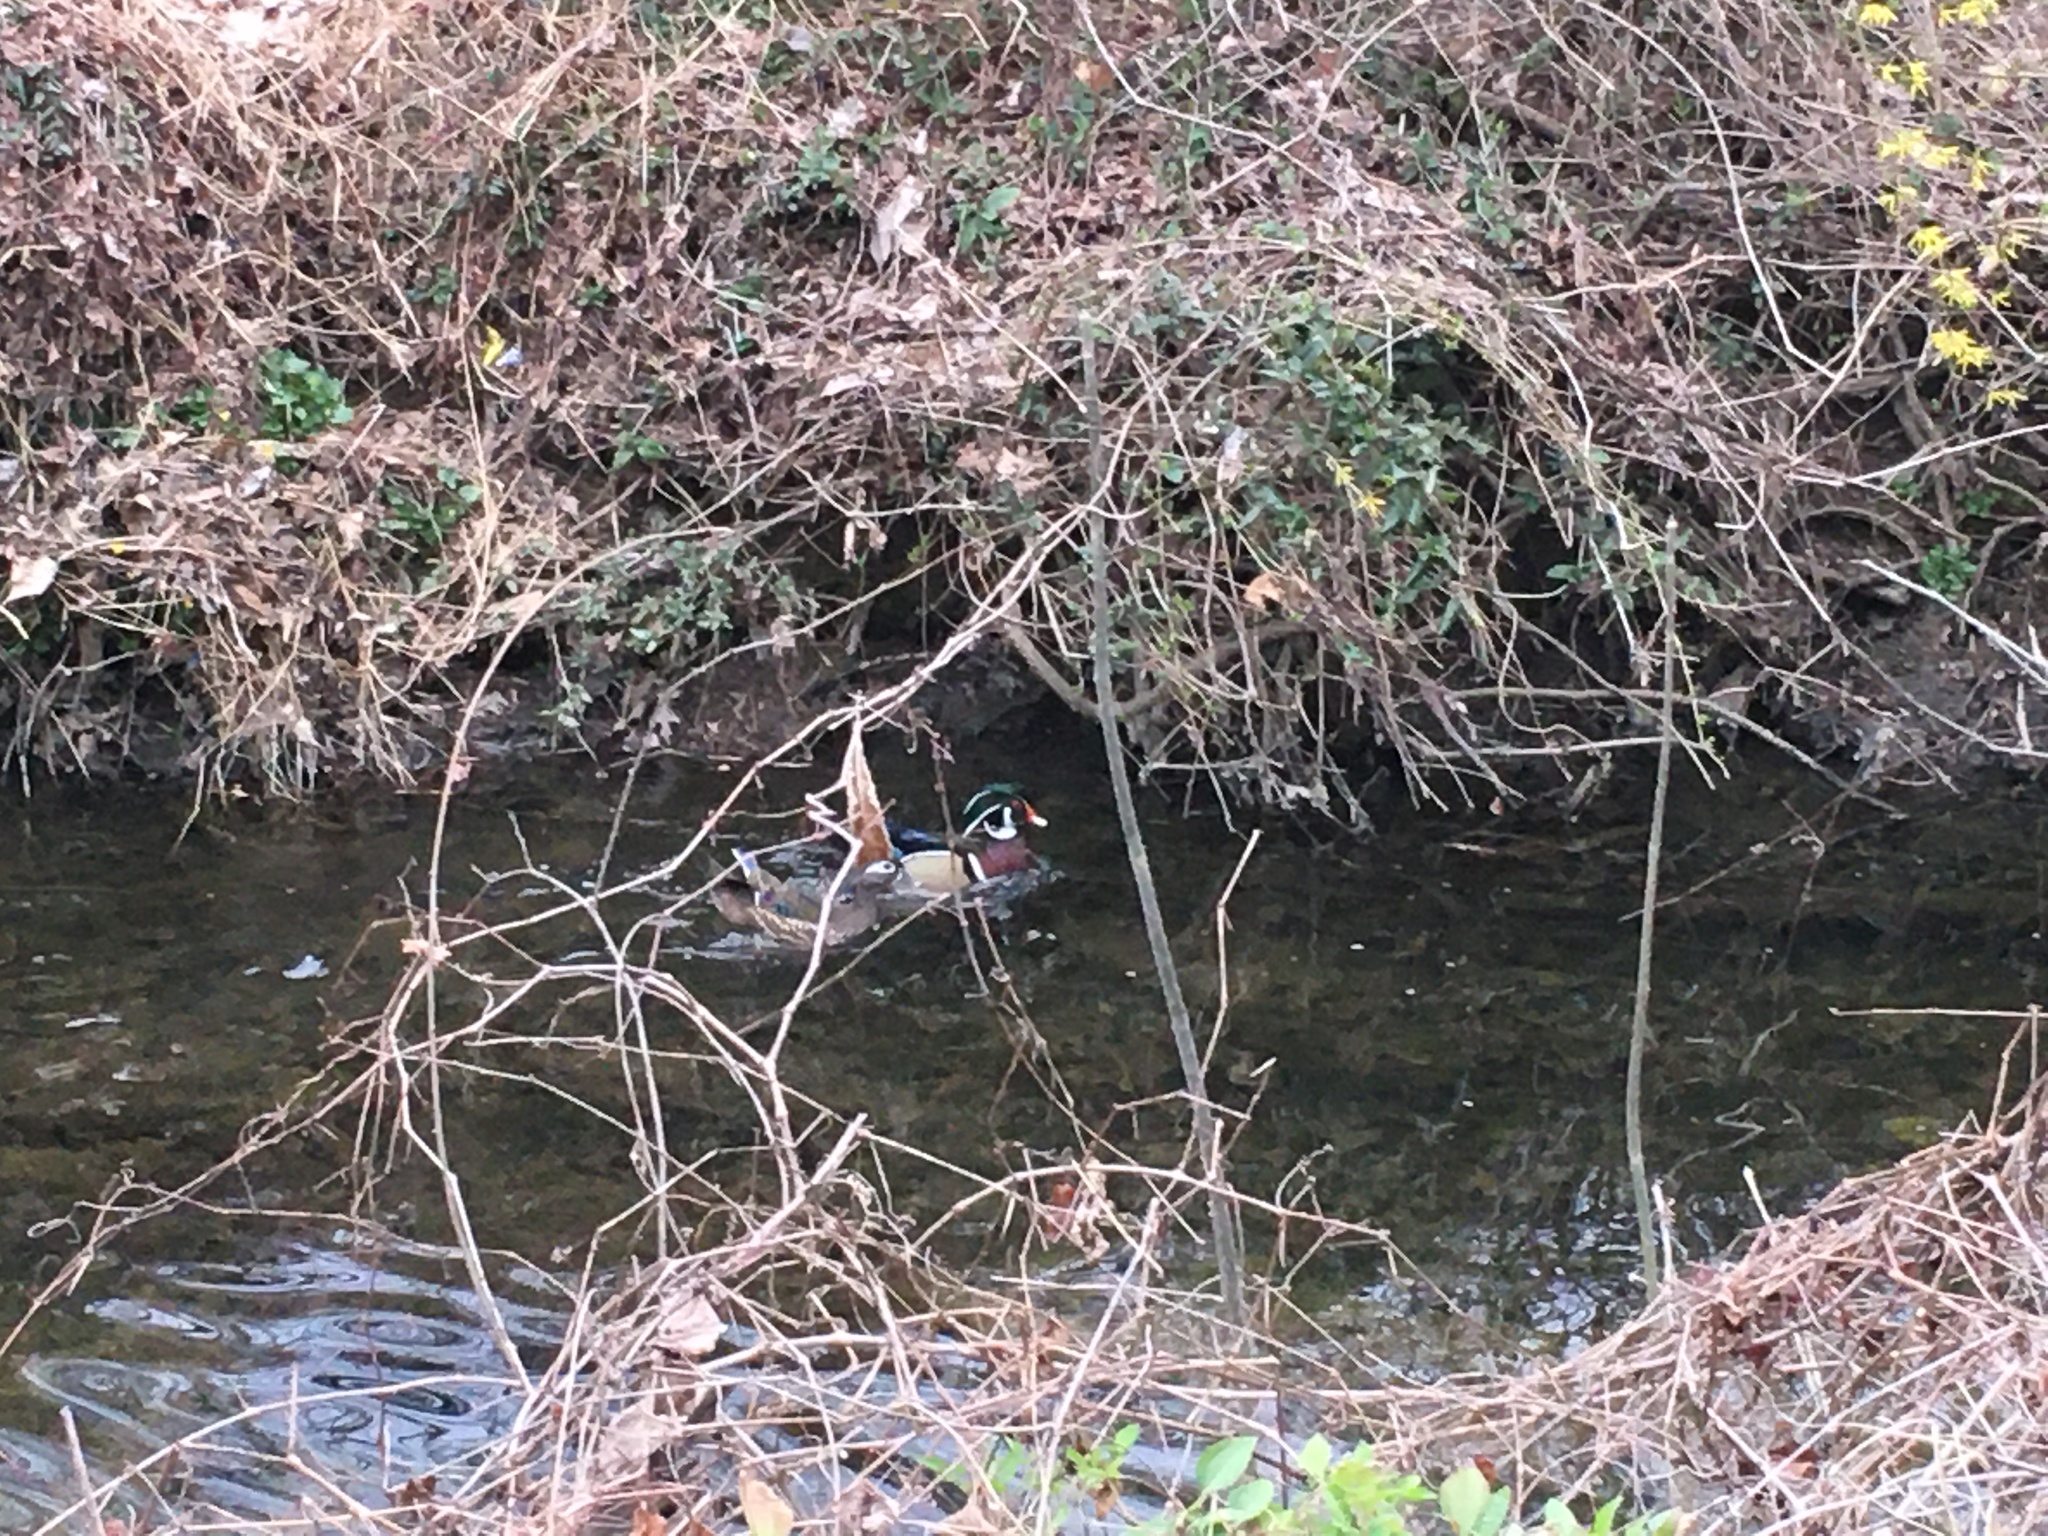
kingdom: Animalia
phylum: Chordata
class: Aves
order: Anseriformes
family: Anatidae
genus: Aix
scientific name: Aix sponsa
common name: Wood duck
